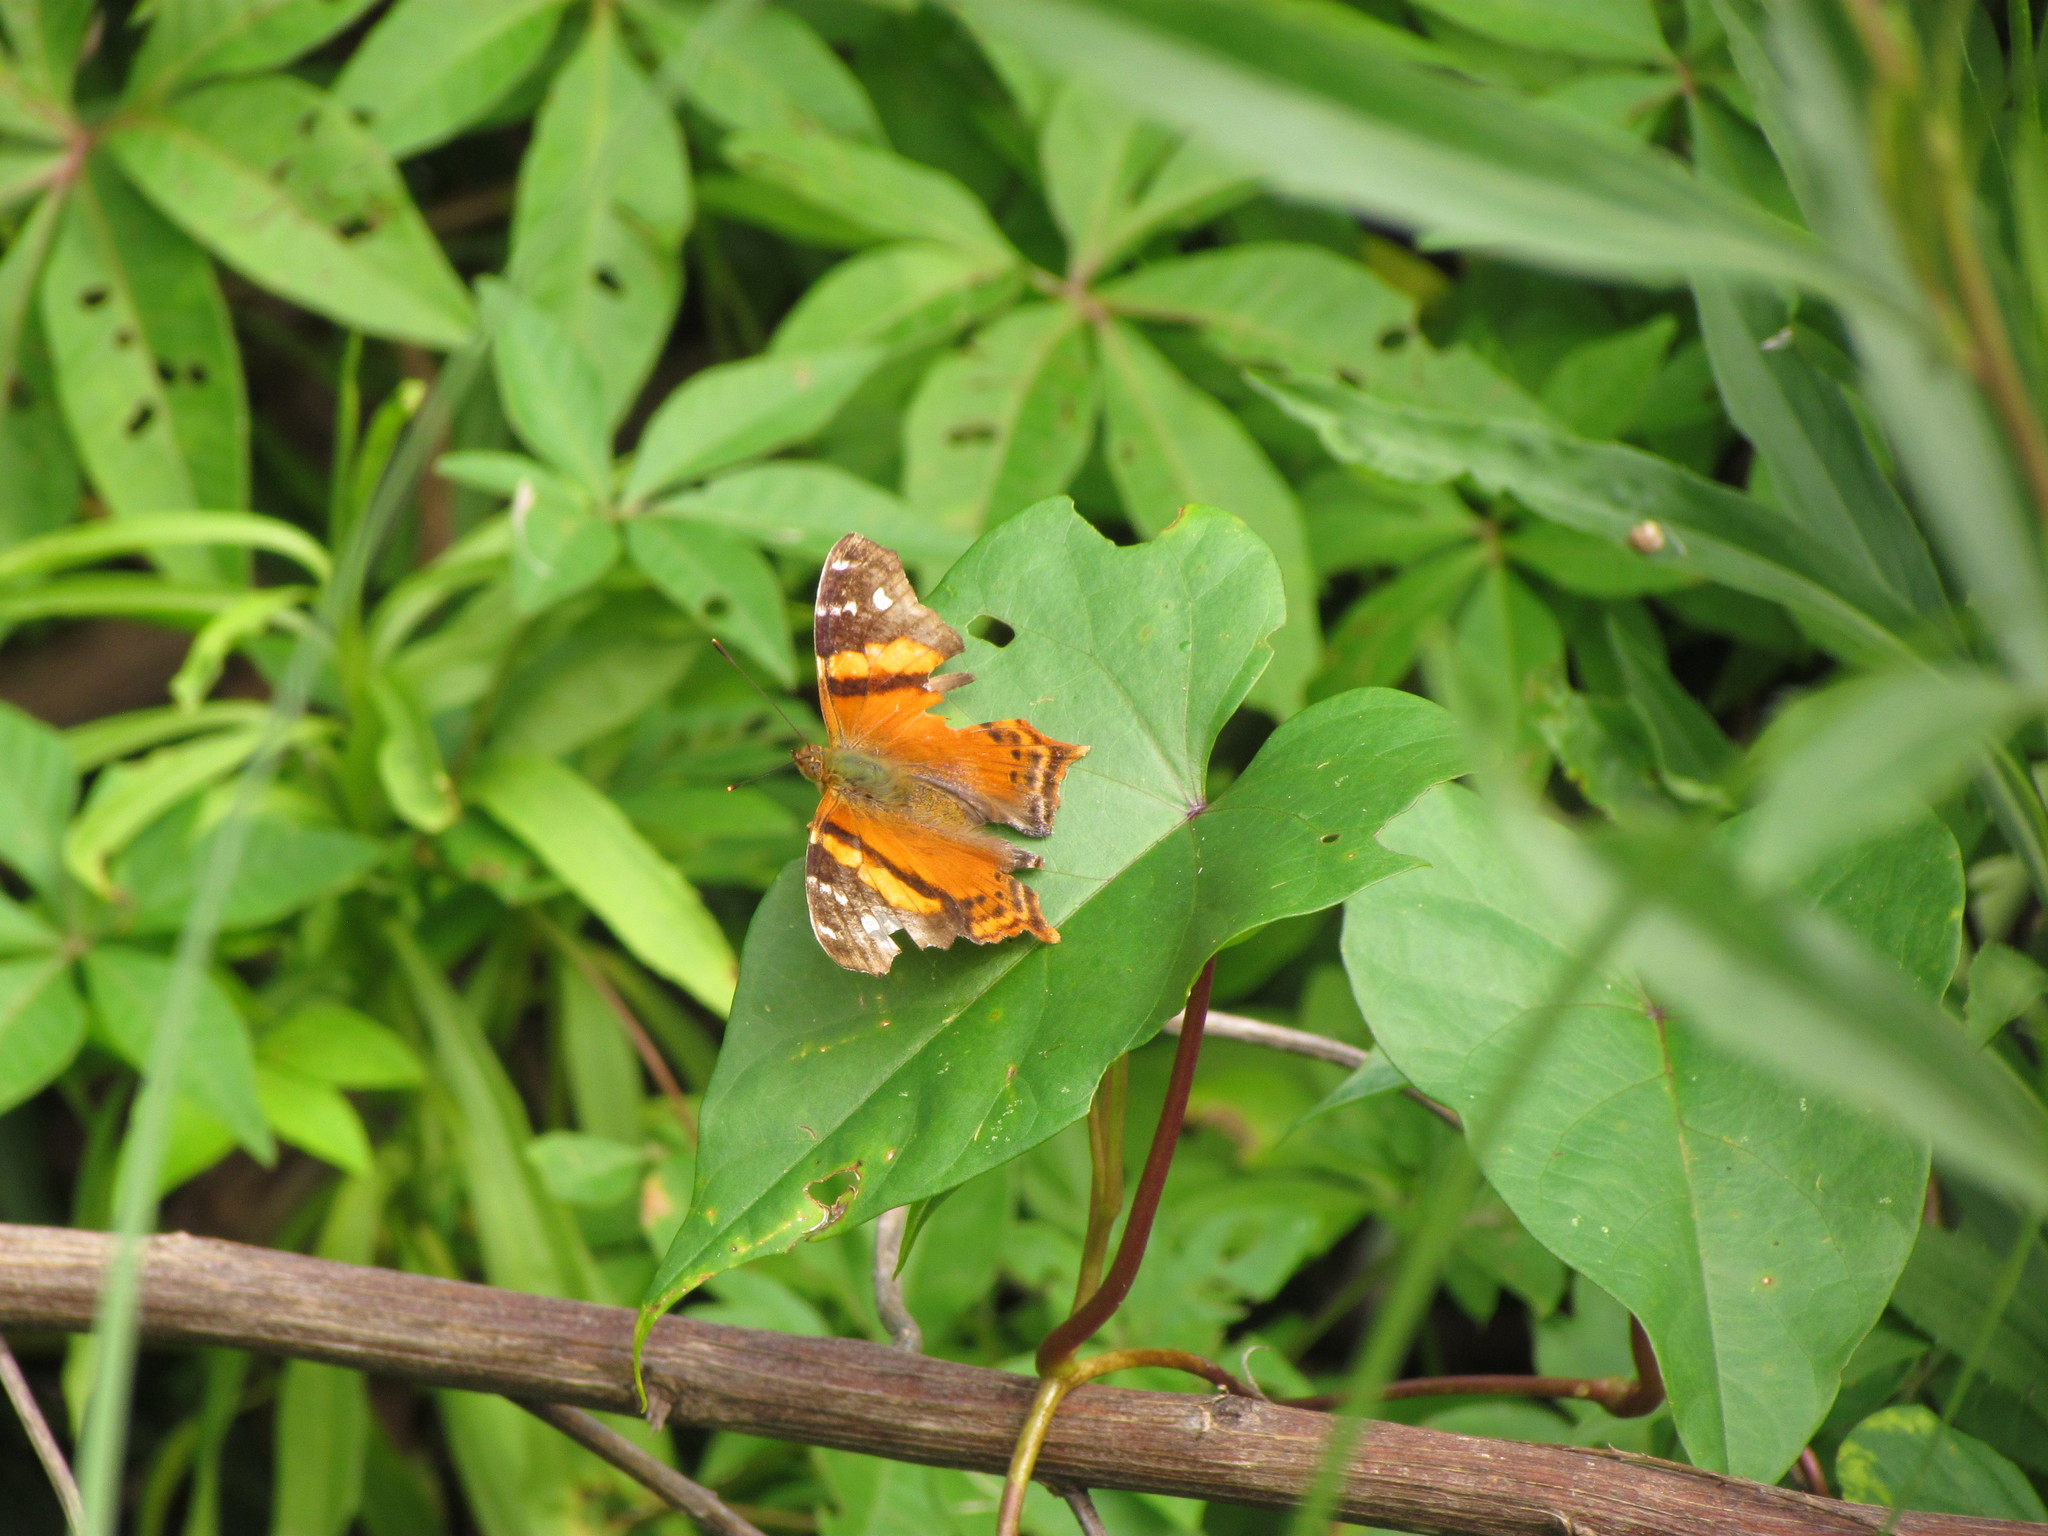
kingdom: Animalia
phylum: Arthropoda
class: Insecta
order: Lepidoptera
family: Nymphalidae
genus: Hypanartia
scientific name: Hypanartia bella
